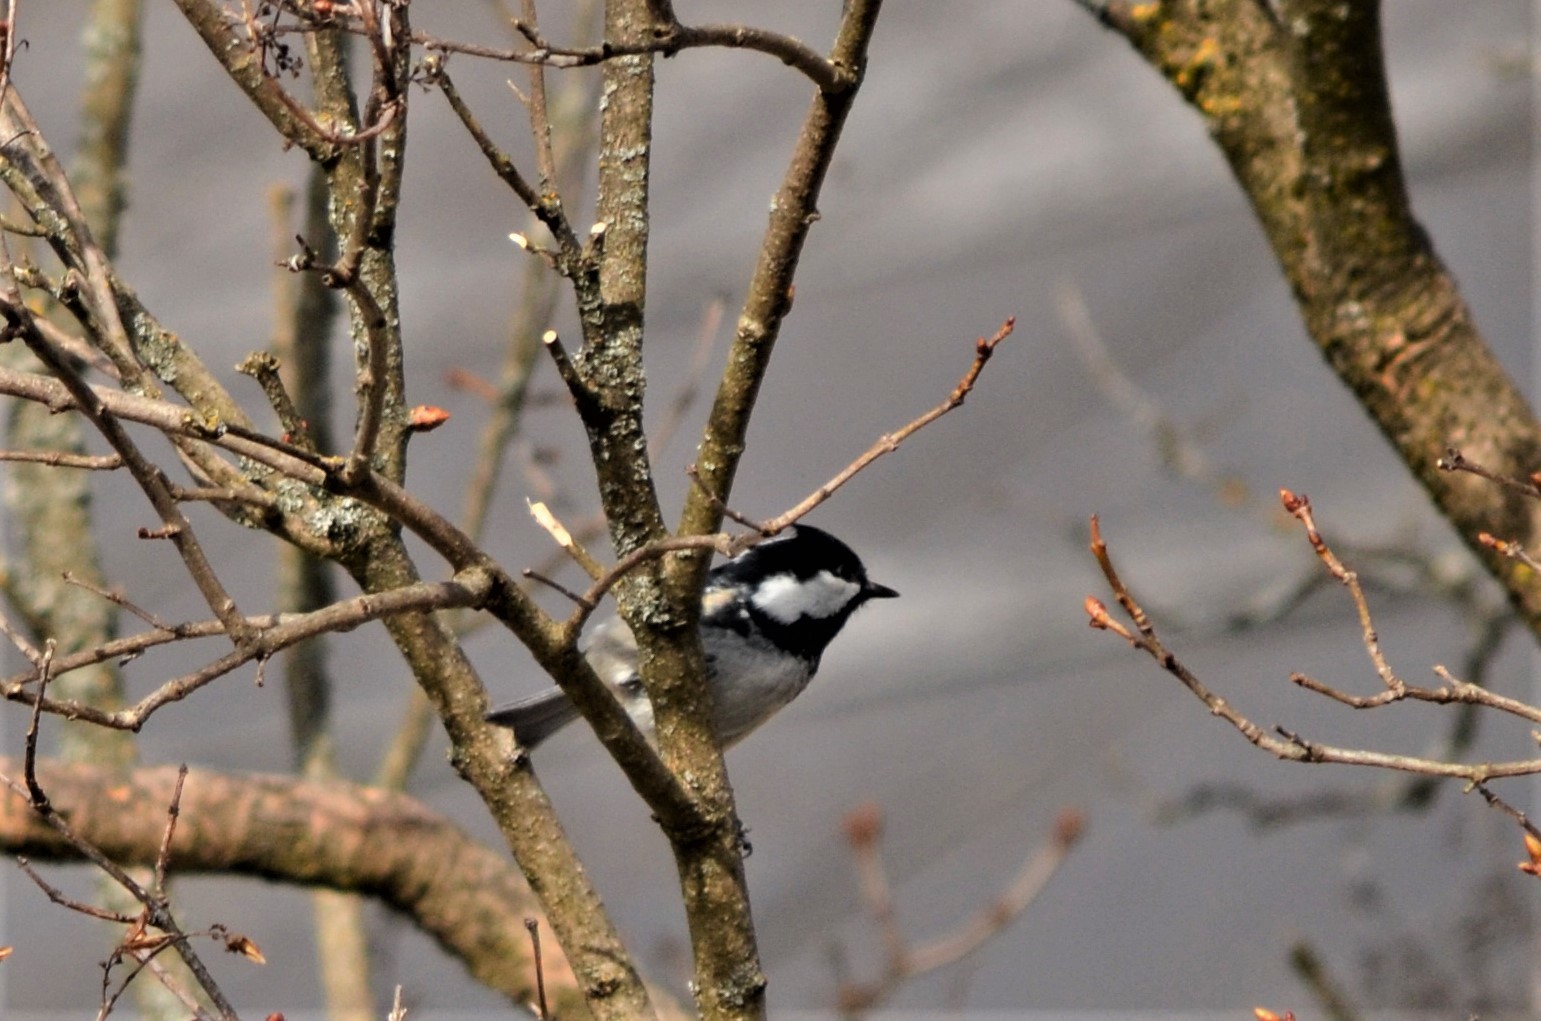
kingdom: Animalia
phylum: Chordata
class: Aves
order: Passeriformes
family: Paridae
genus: Periparus
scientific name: Periparus ater
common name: Coal tit
